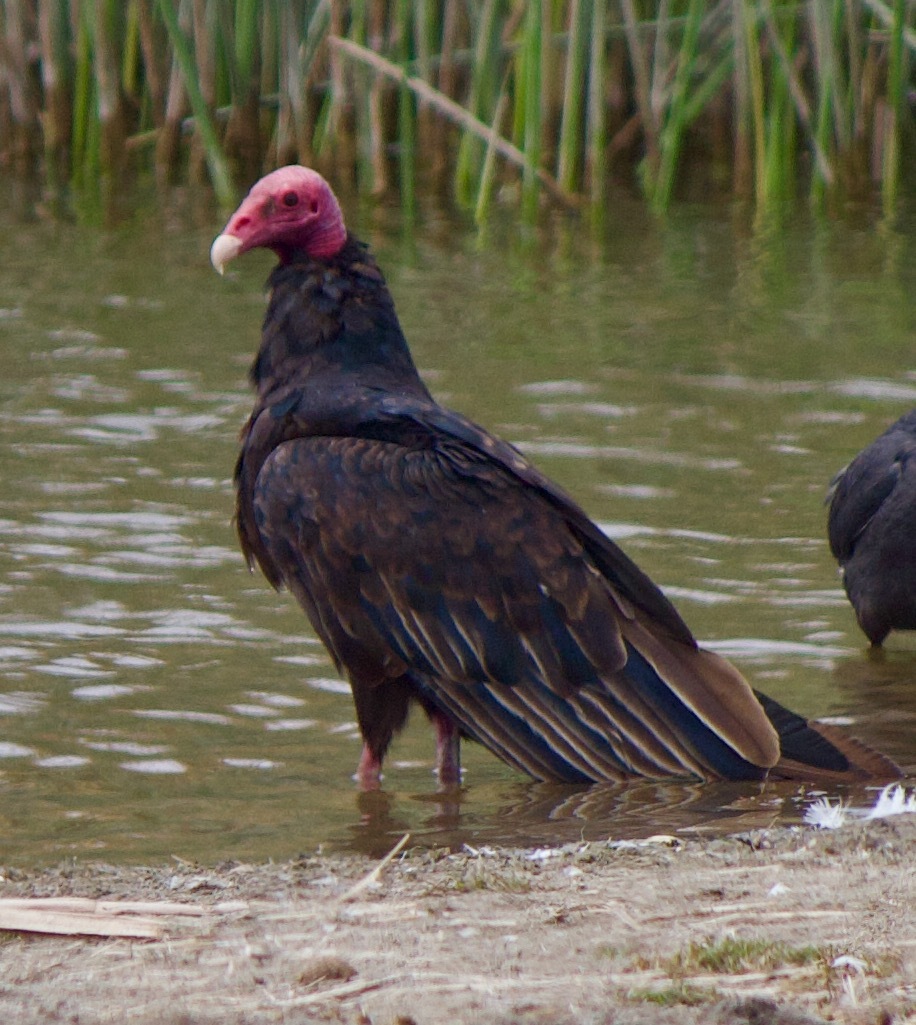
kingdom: Animalia
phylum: Chordata
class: Aves
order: Accipitriformes
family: Cathartidae
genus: Cathartes
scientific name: Cathartes aura
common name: Turkey vulture
